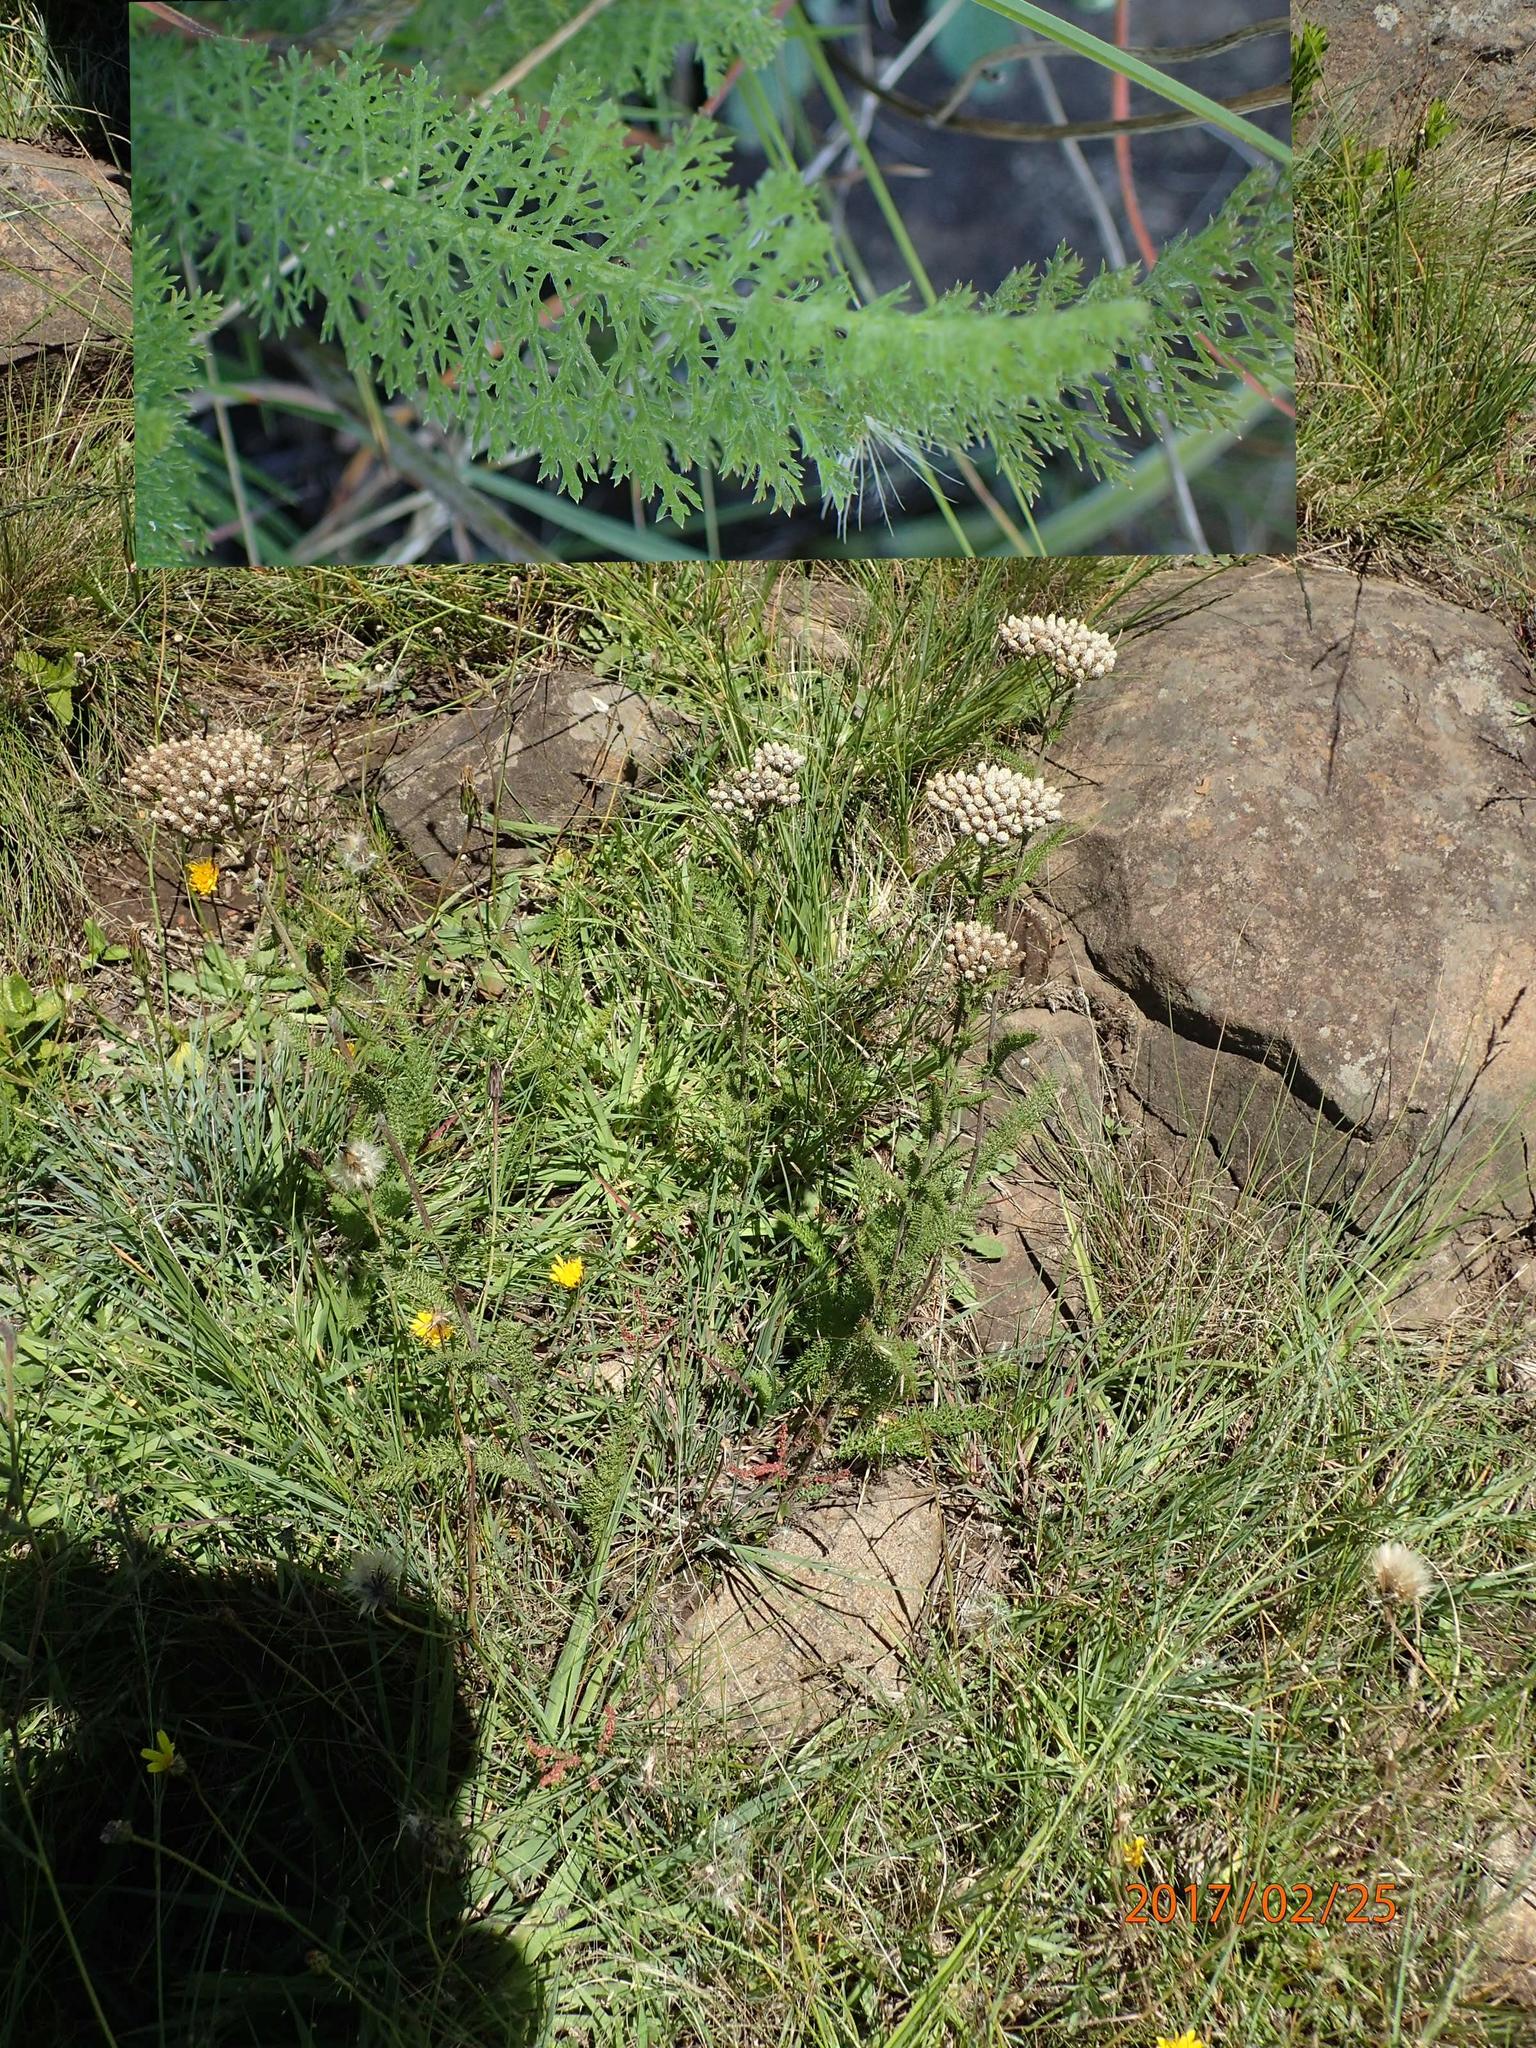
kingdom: Plantae
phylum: Tracheophyta
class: Magnoliopsida
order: Asterales
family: Asteraceae
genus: Achillea
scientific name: Achillea millefolium
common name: Yarrow
